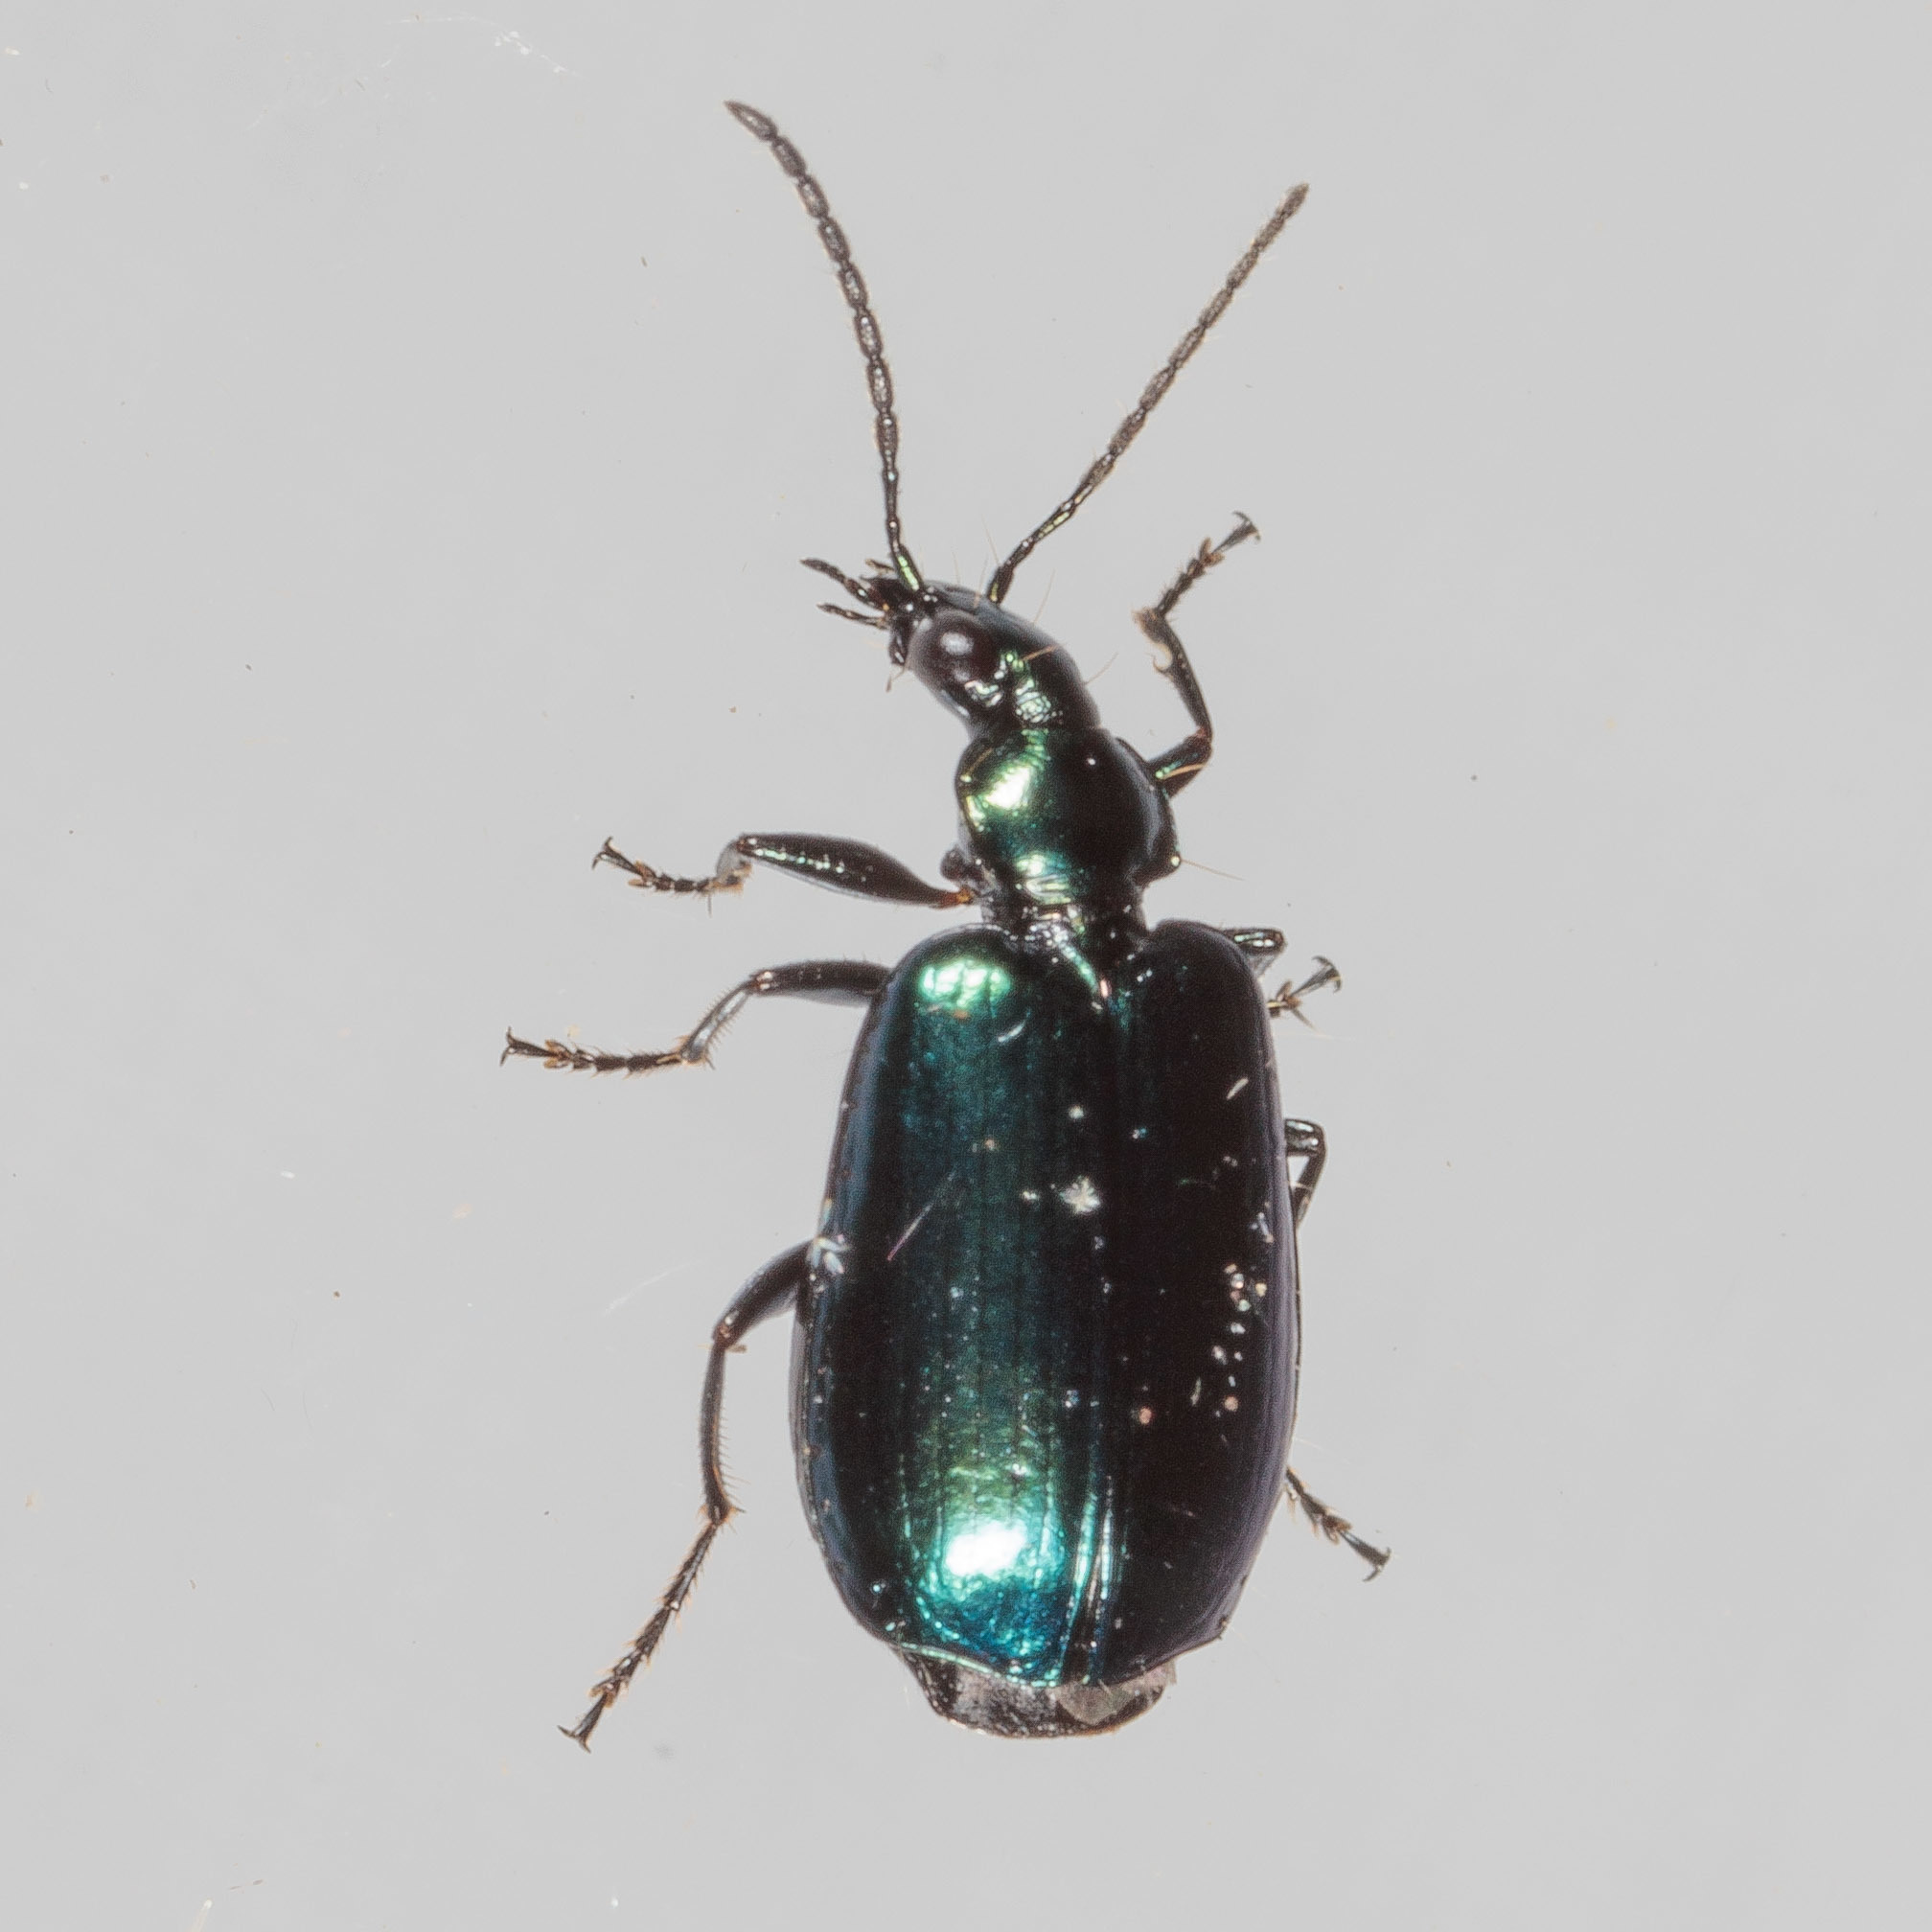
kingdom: Animalia
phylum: Arthropoda
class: Insecta
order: Coleoptera
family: Carabidae
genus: Lebia
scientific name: Lebia viridis
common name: Flower lebia beetle
